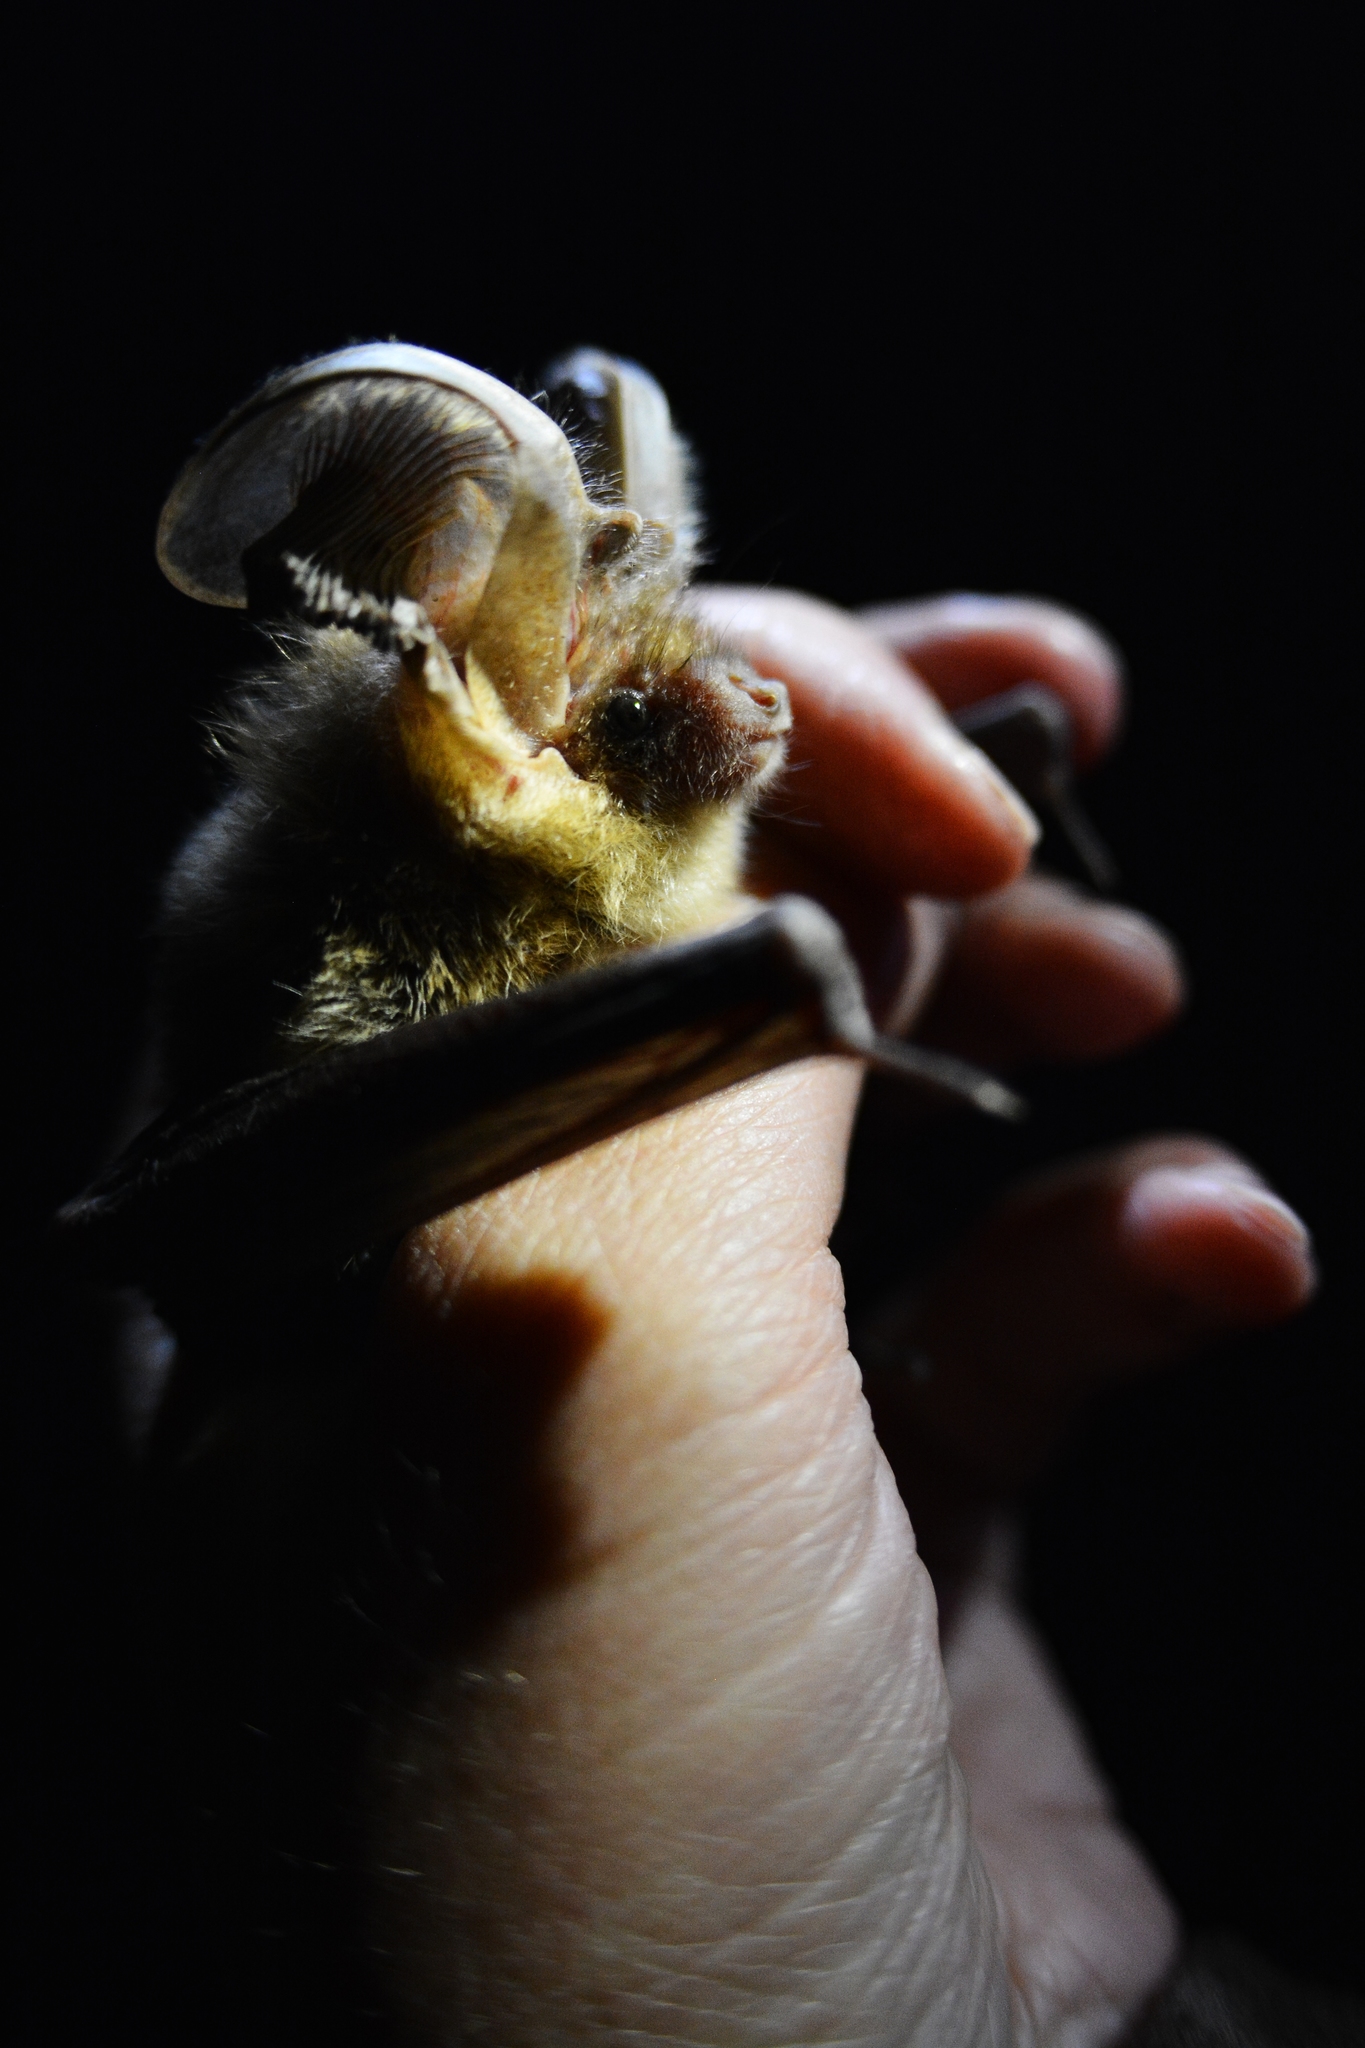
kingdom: Animalia
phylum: Chordata
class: Mammalia
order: Chiroptera
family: Vespertilionidae
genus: Plecotus
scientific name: Plecotus auritus
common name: Brown long-eared bat
